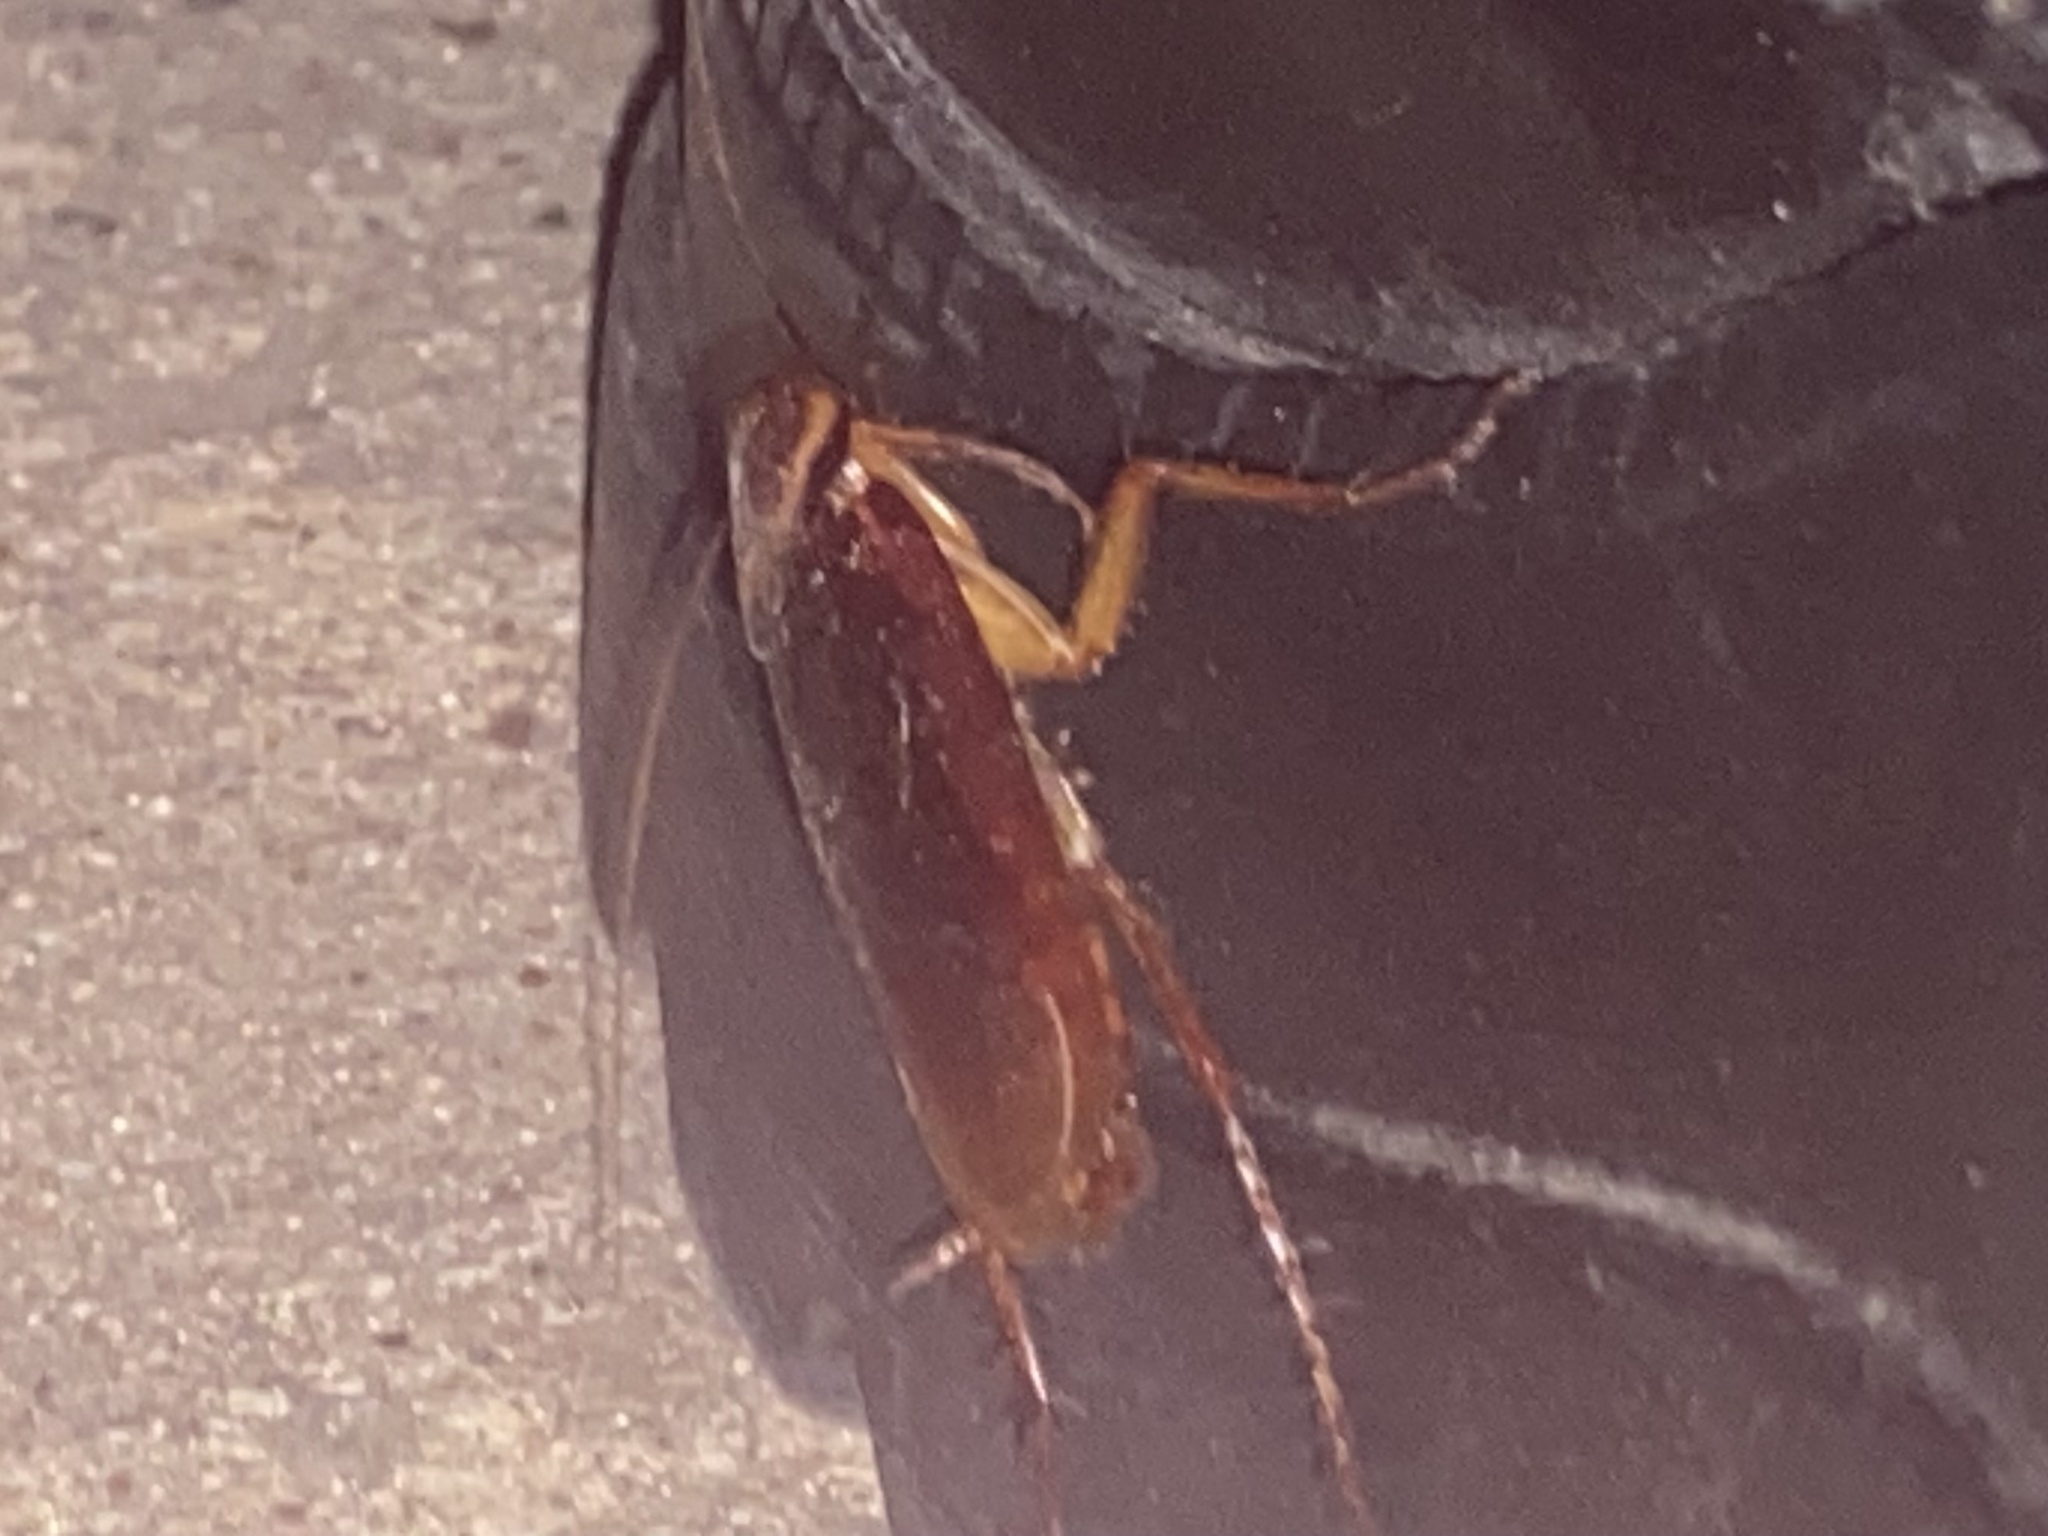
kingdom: Animalia
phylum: Arthropoda
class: Insecta
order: Blattodea
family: Blattidae
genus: Periplaneta
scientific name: Periplaneta americana
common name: American cockroach
